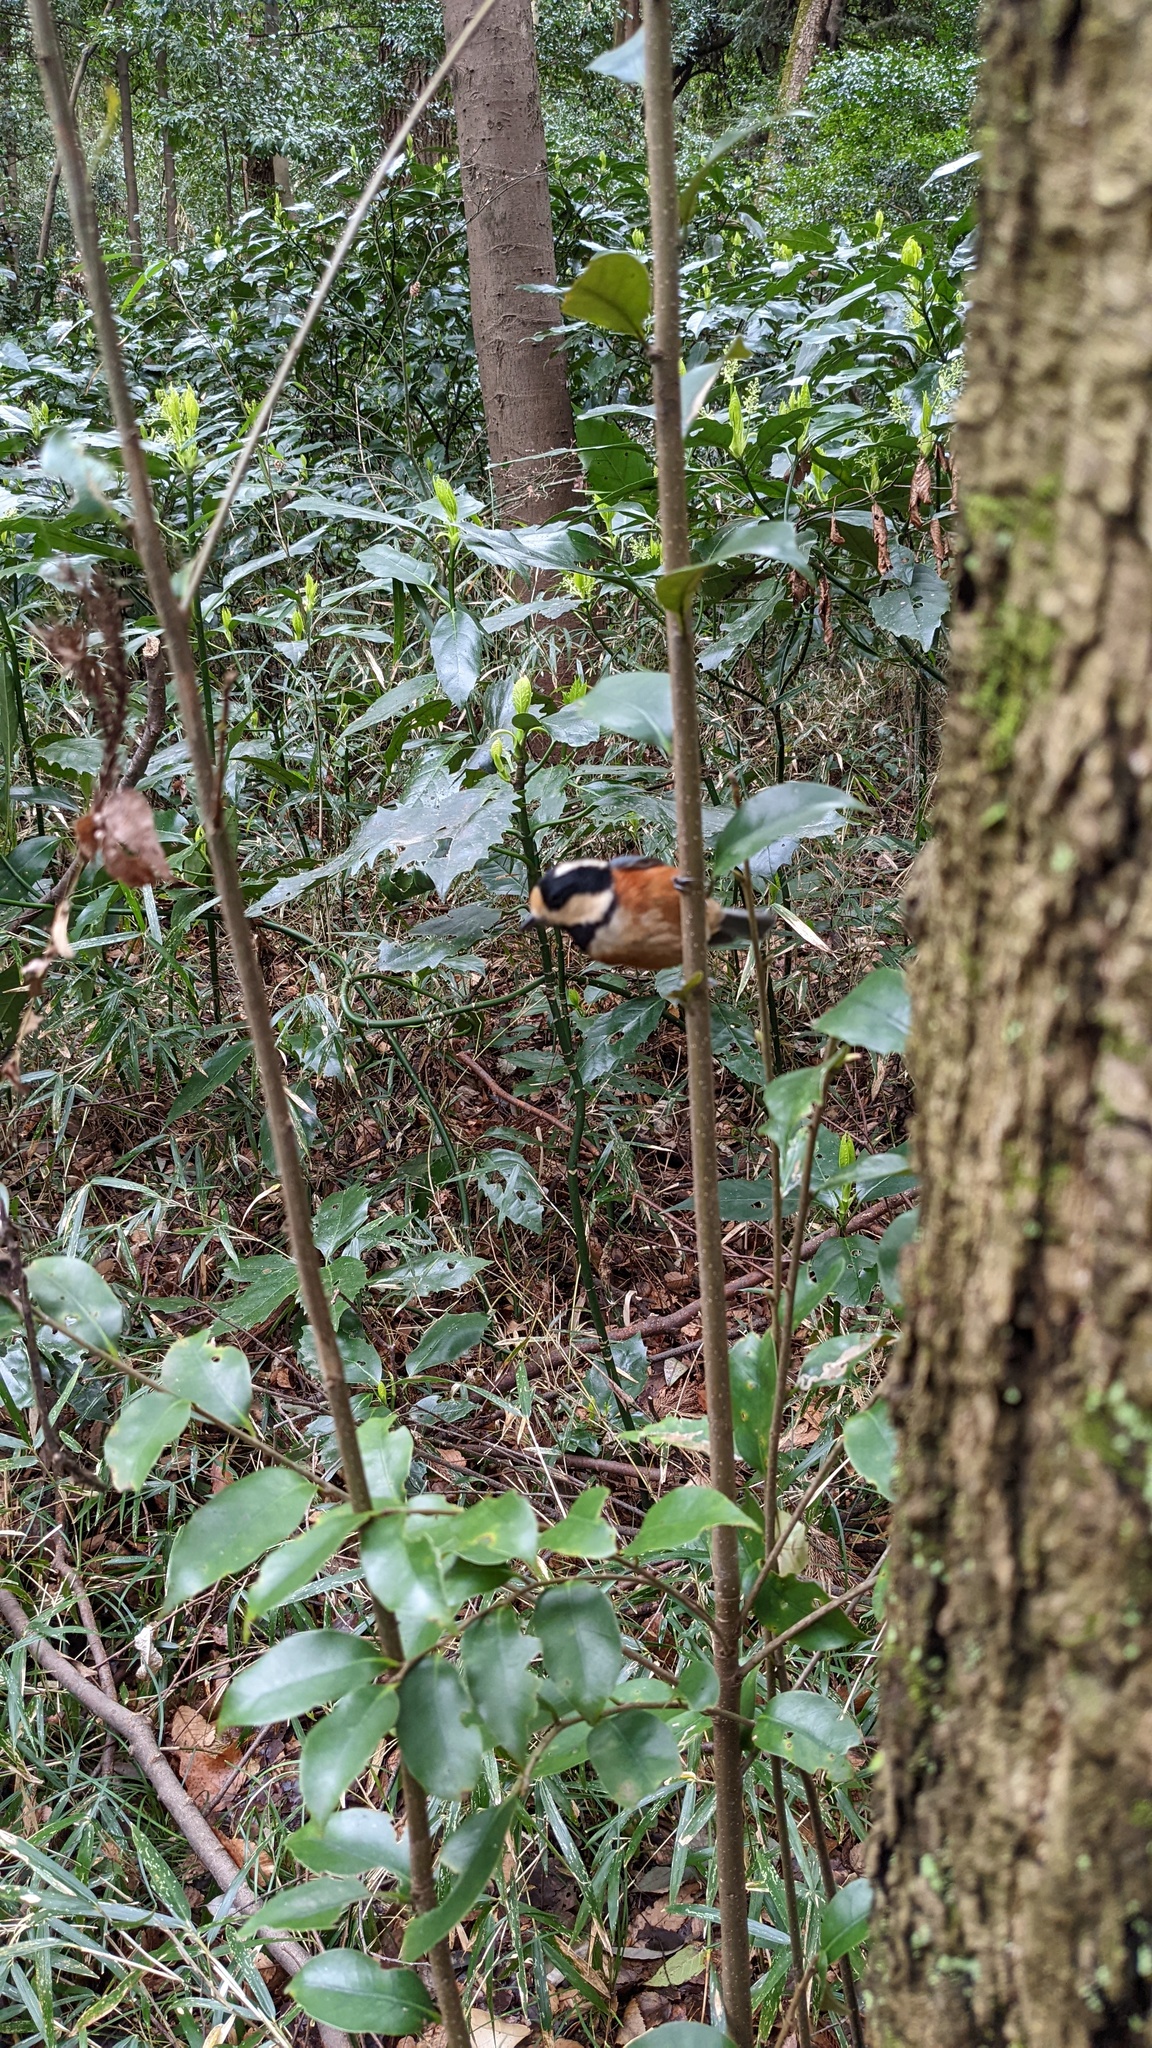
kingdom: Animalia
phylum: Chordata
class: Aves
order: Passeriformes
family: Paridae
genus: Poecile
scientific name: Poecile varius
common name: Varied tit
